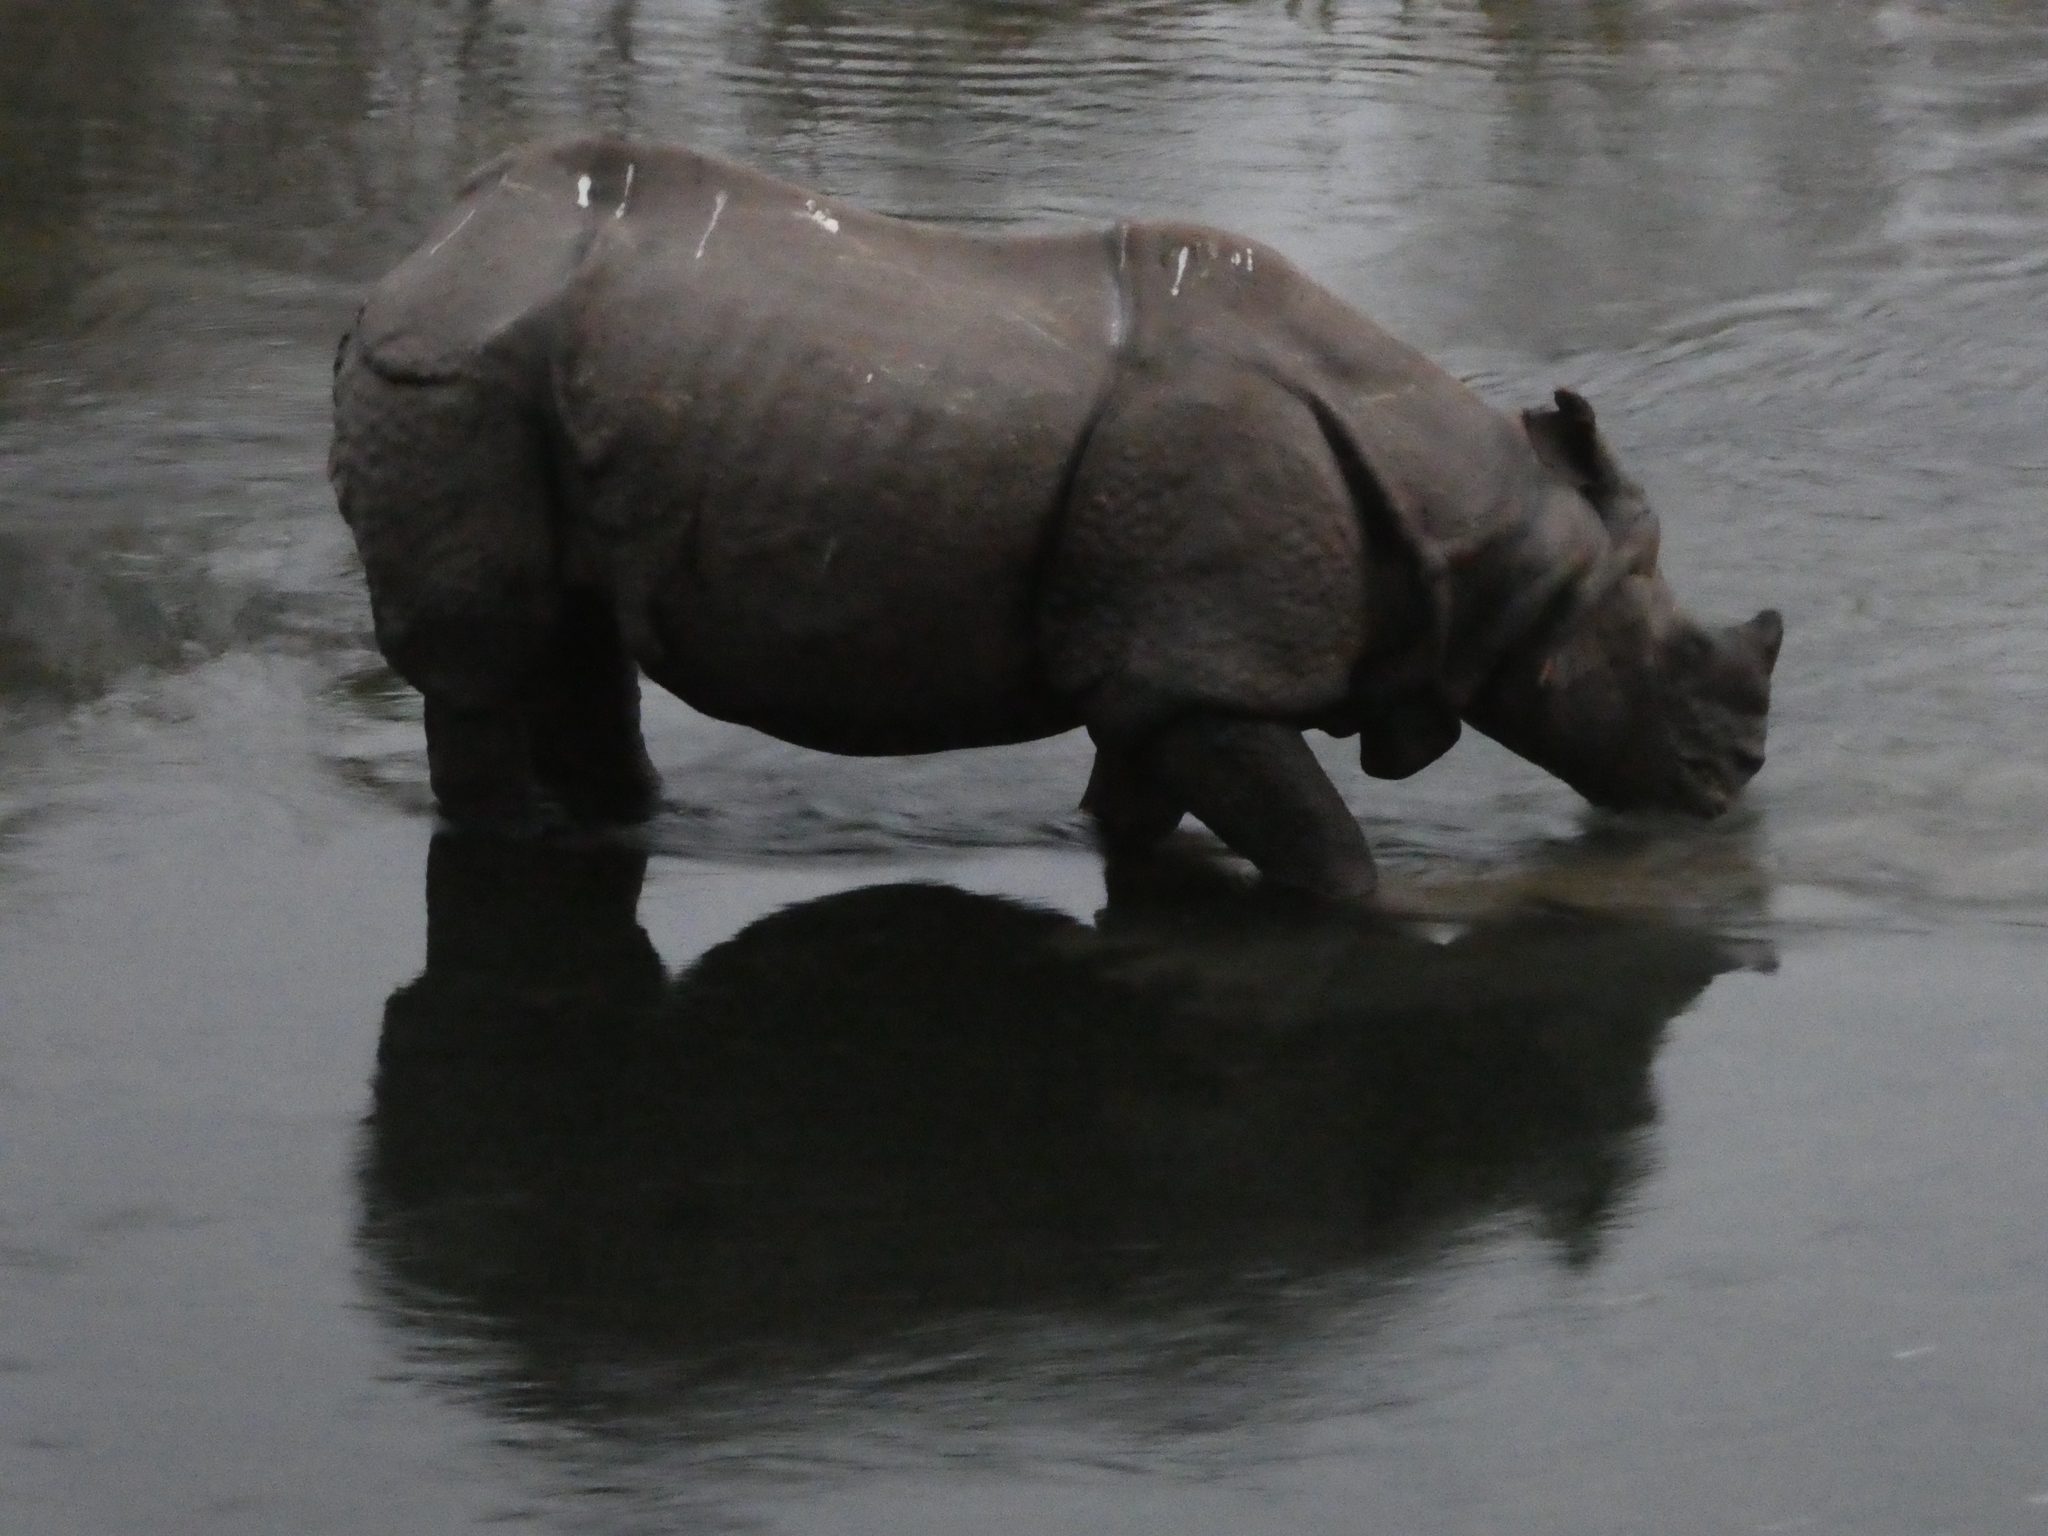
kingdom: Animalia
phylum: Chordata
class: Mammalia
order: Perissodactyla
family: Rhinocerotidae
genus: Rhinoceros
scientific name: Rhinoceros unicornis
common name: Indian rhinoceros
